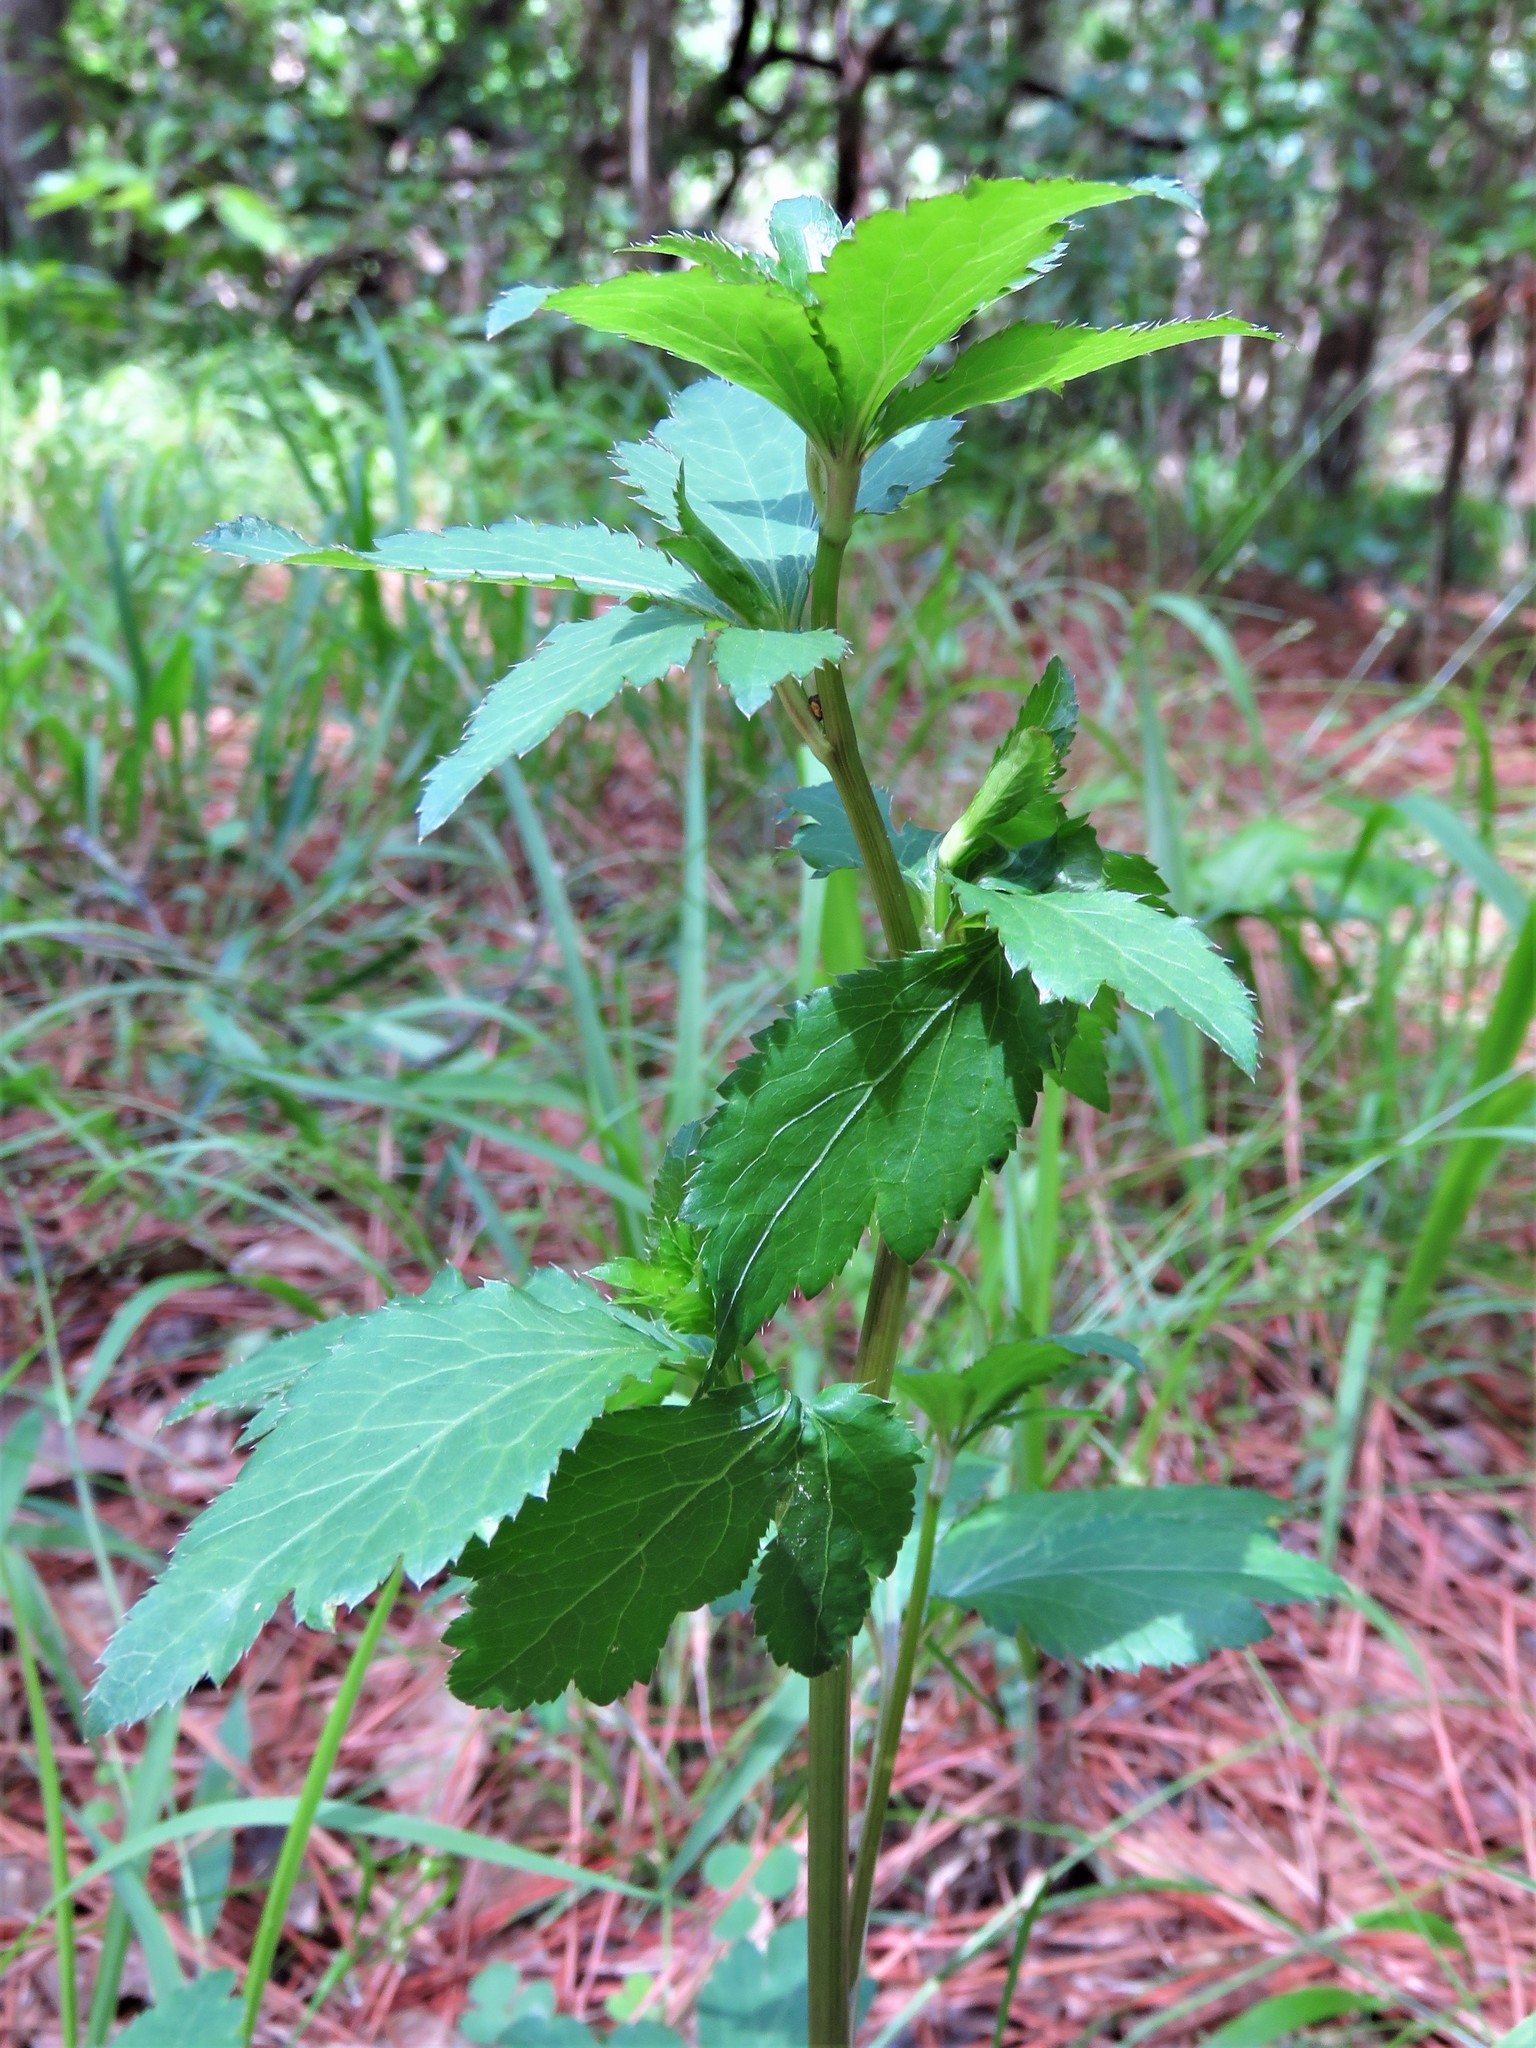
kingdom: Plantae
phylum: Tracheophyta
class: Magnoliopsida
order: Apiales
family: Apiaceae
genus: Sanicula
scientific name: Sanicula canadensis
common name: Canada sanicle
